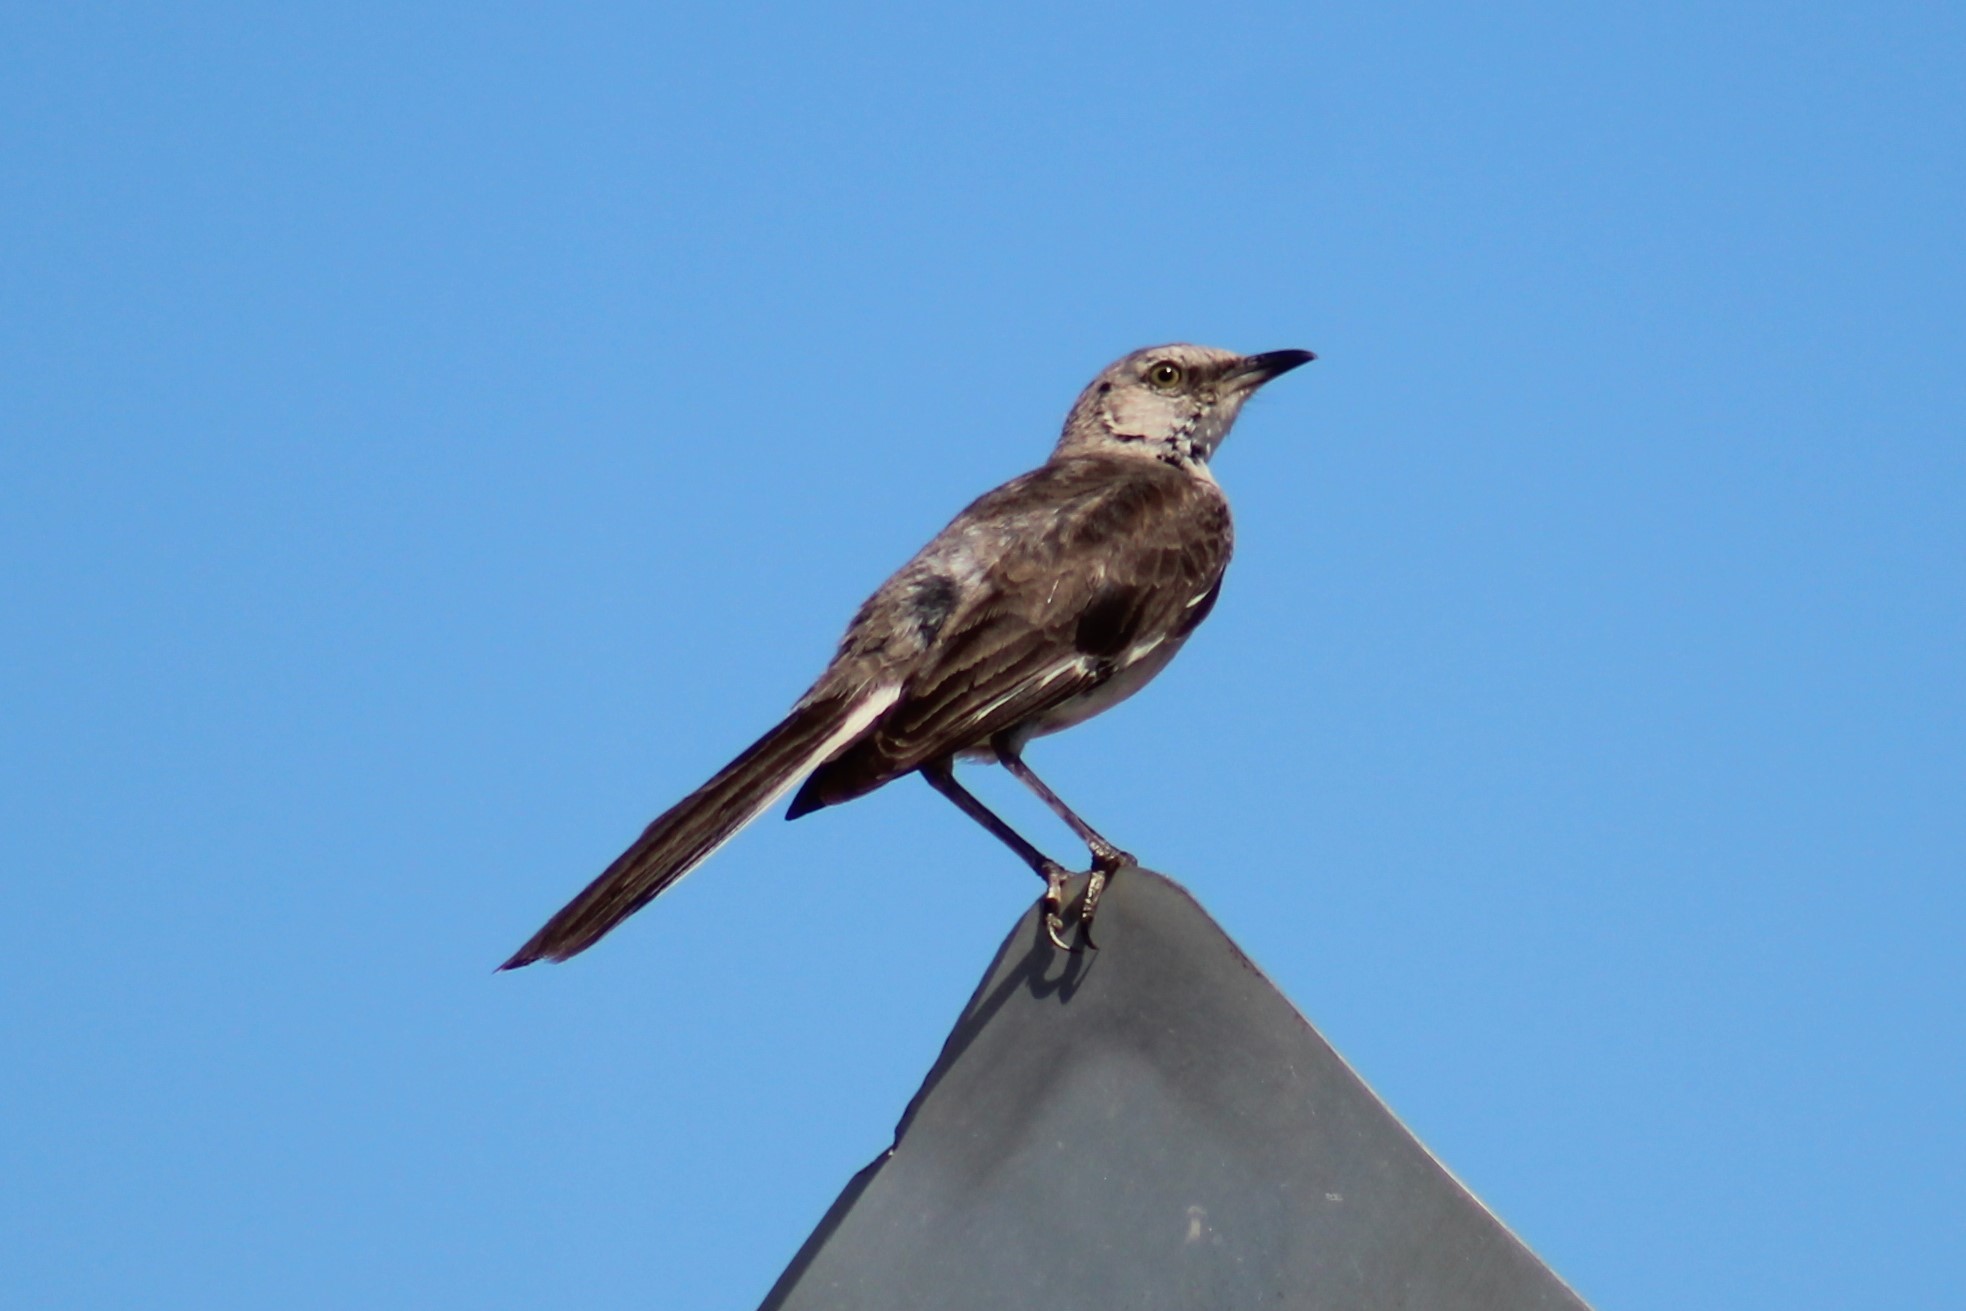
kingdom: Animalia
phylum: Chordata
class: Aves
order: Passeriformes
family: Mimidae
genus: Mimus
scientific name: Mimus polyglottos
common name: Northern mockingbird
